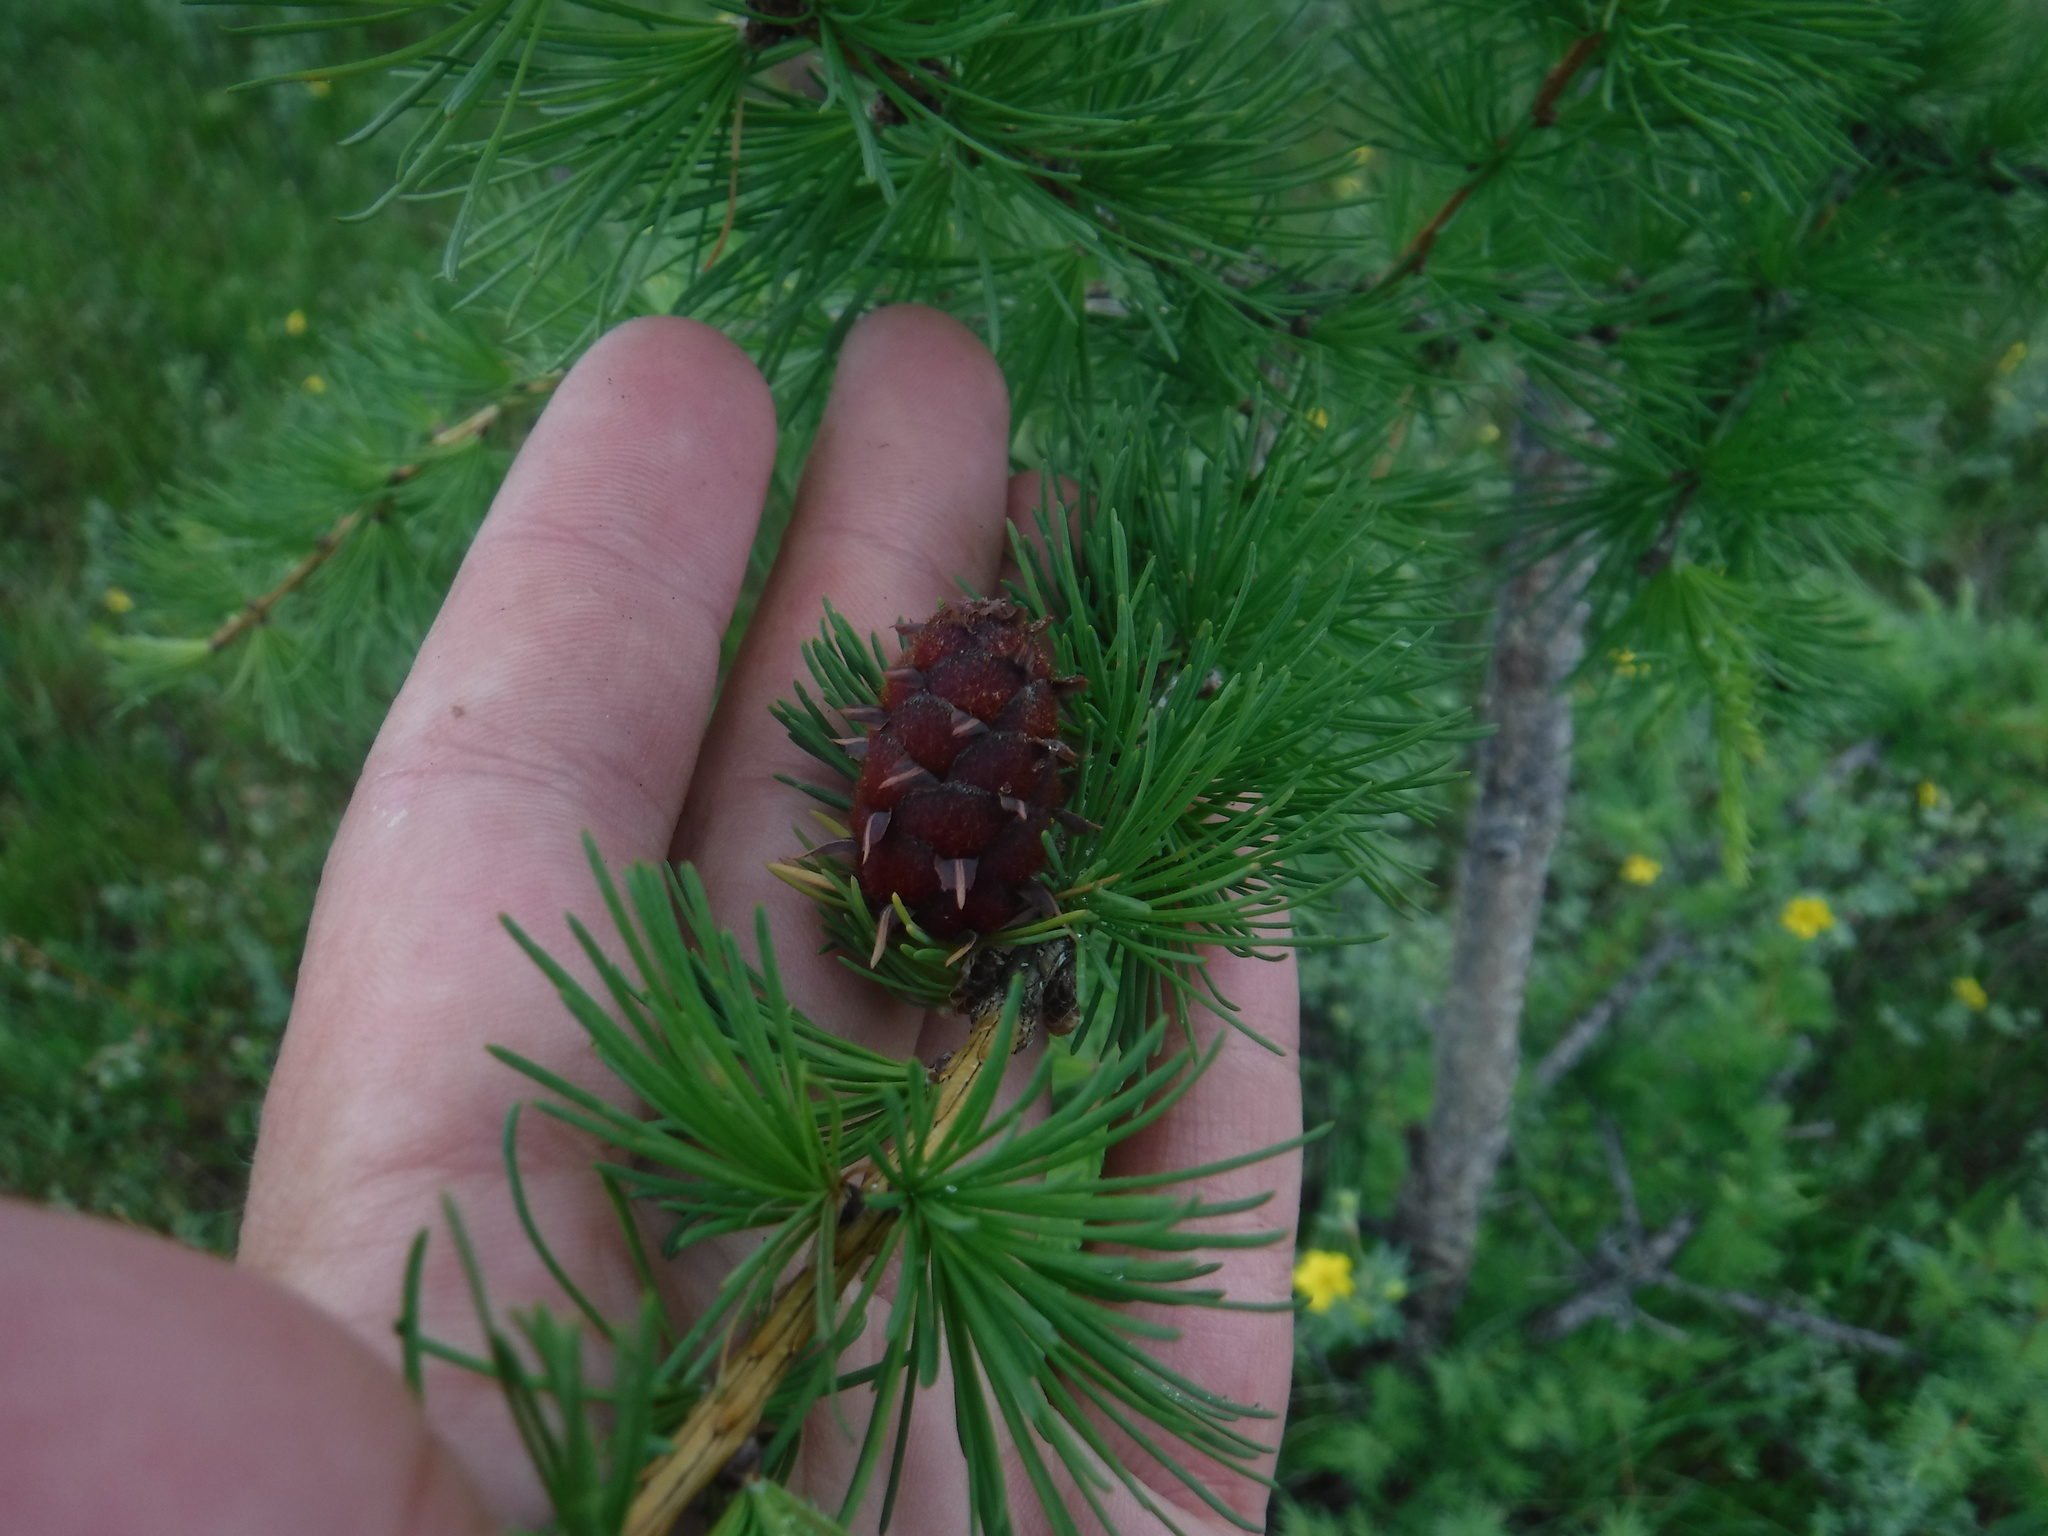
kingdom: Plantae
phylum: Tracheophyta
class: Pinopsida
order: Pinales
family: Pinaceae
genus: Larix
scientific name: Larix sibirica
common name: Siberian larch
